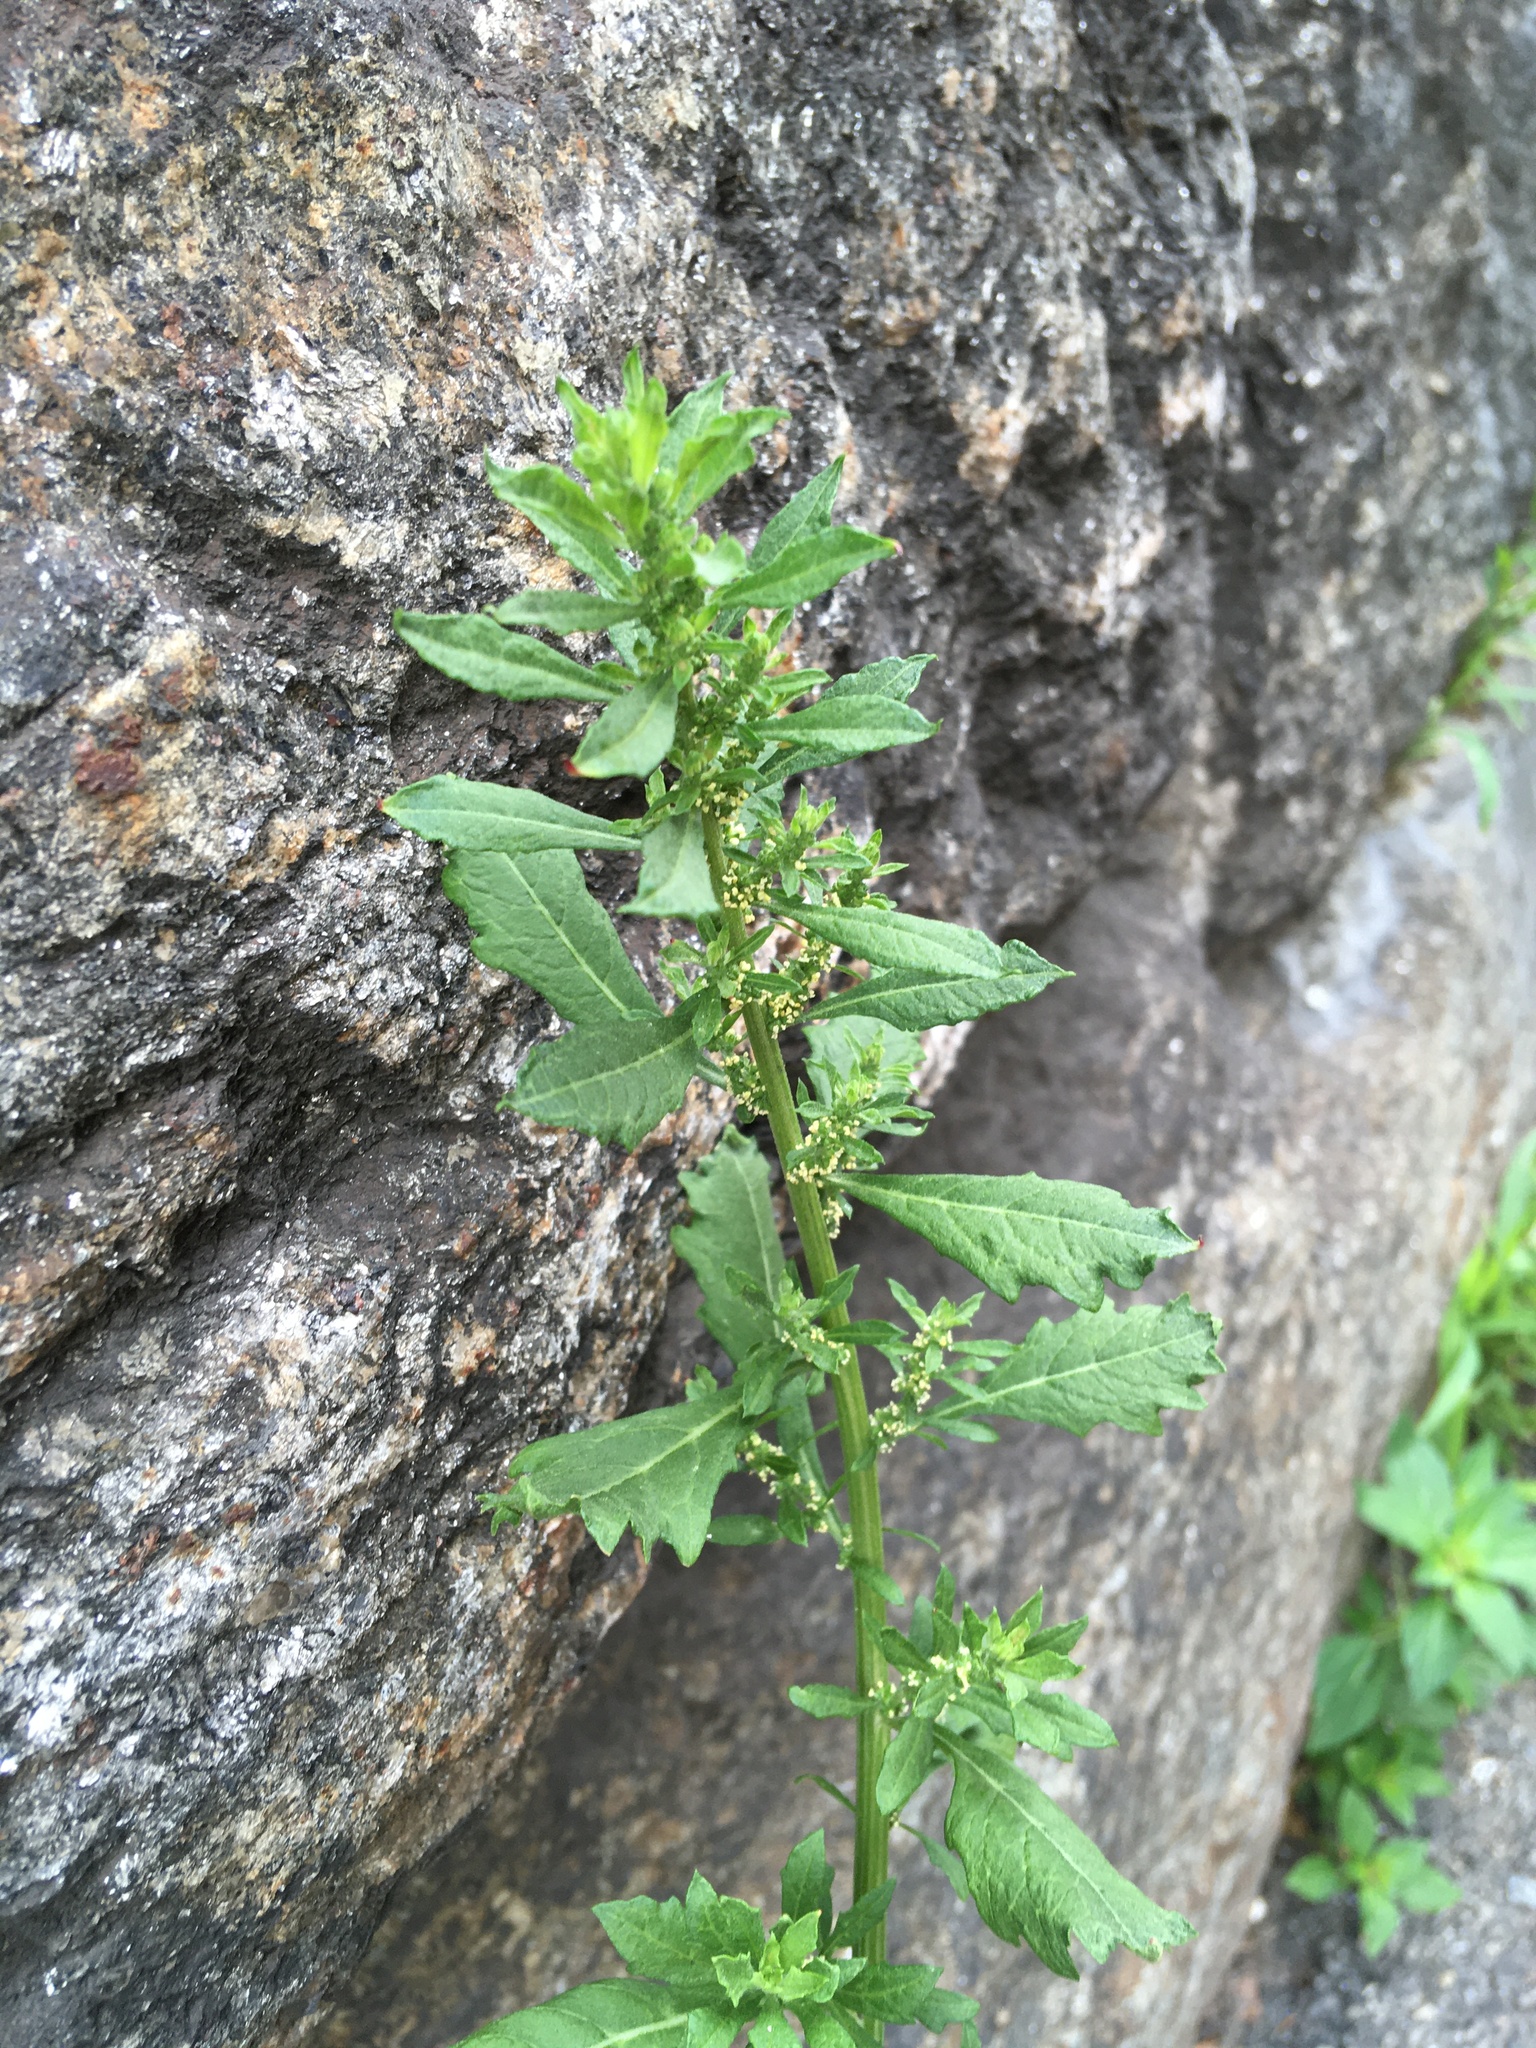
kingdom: Plantae
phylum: Tracheophyta
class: Magnoliopsida
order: Caryophyllales
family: Amaranthaceae
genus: Dysphania
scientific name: Dysphania ambrosioides
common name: Wormseed
